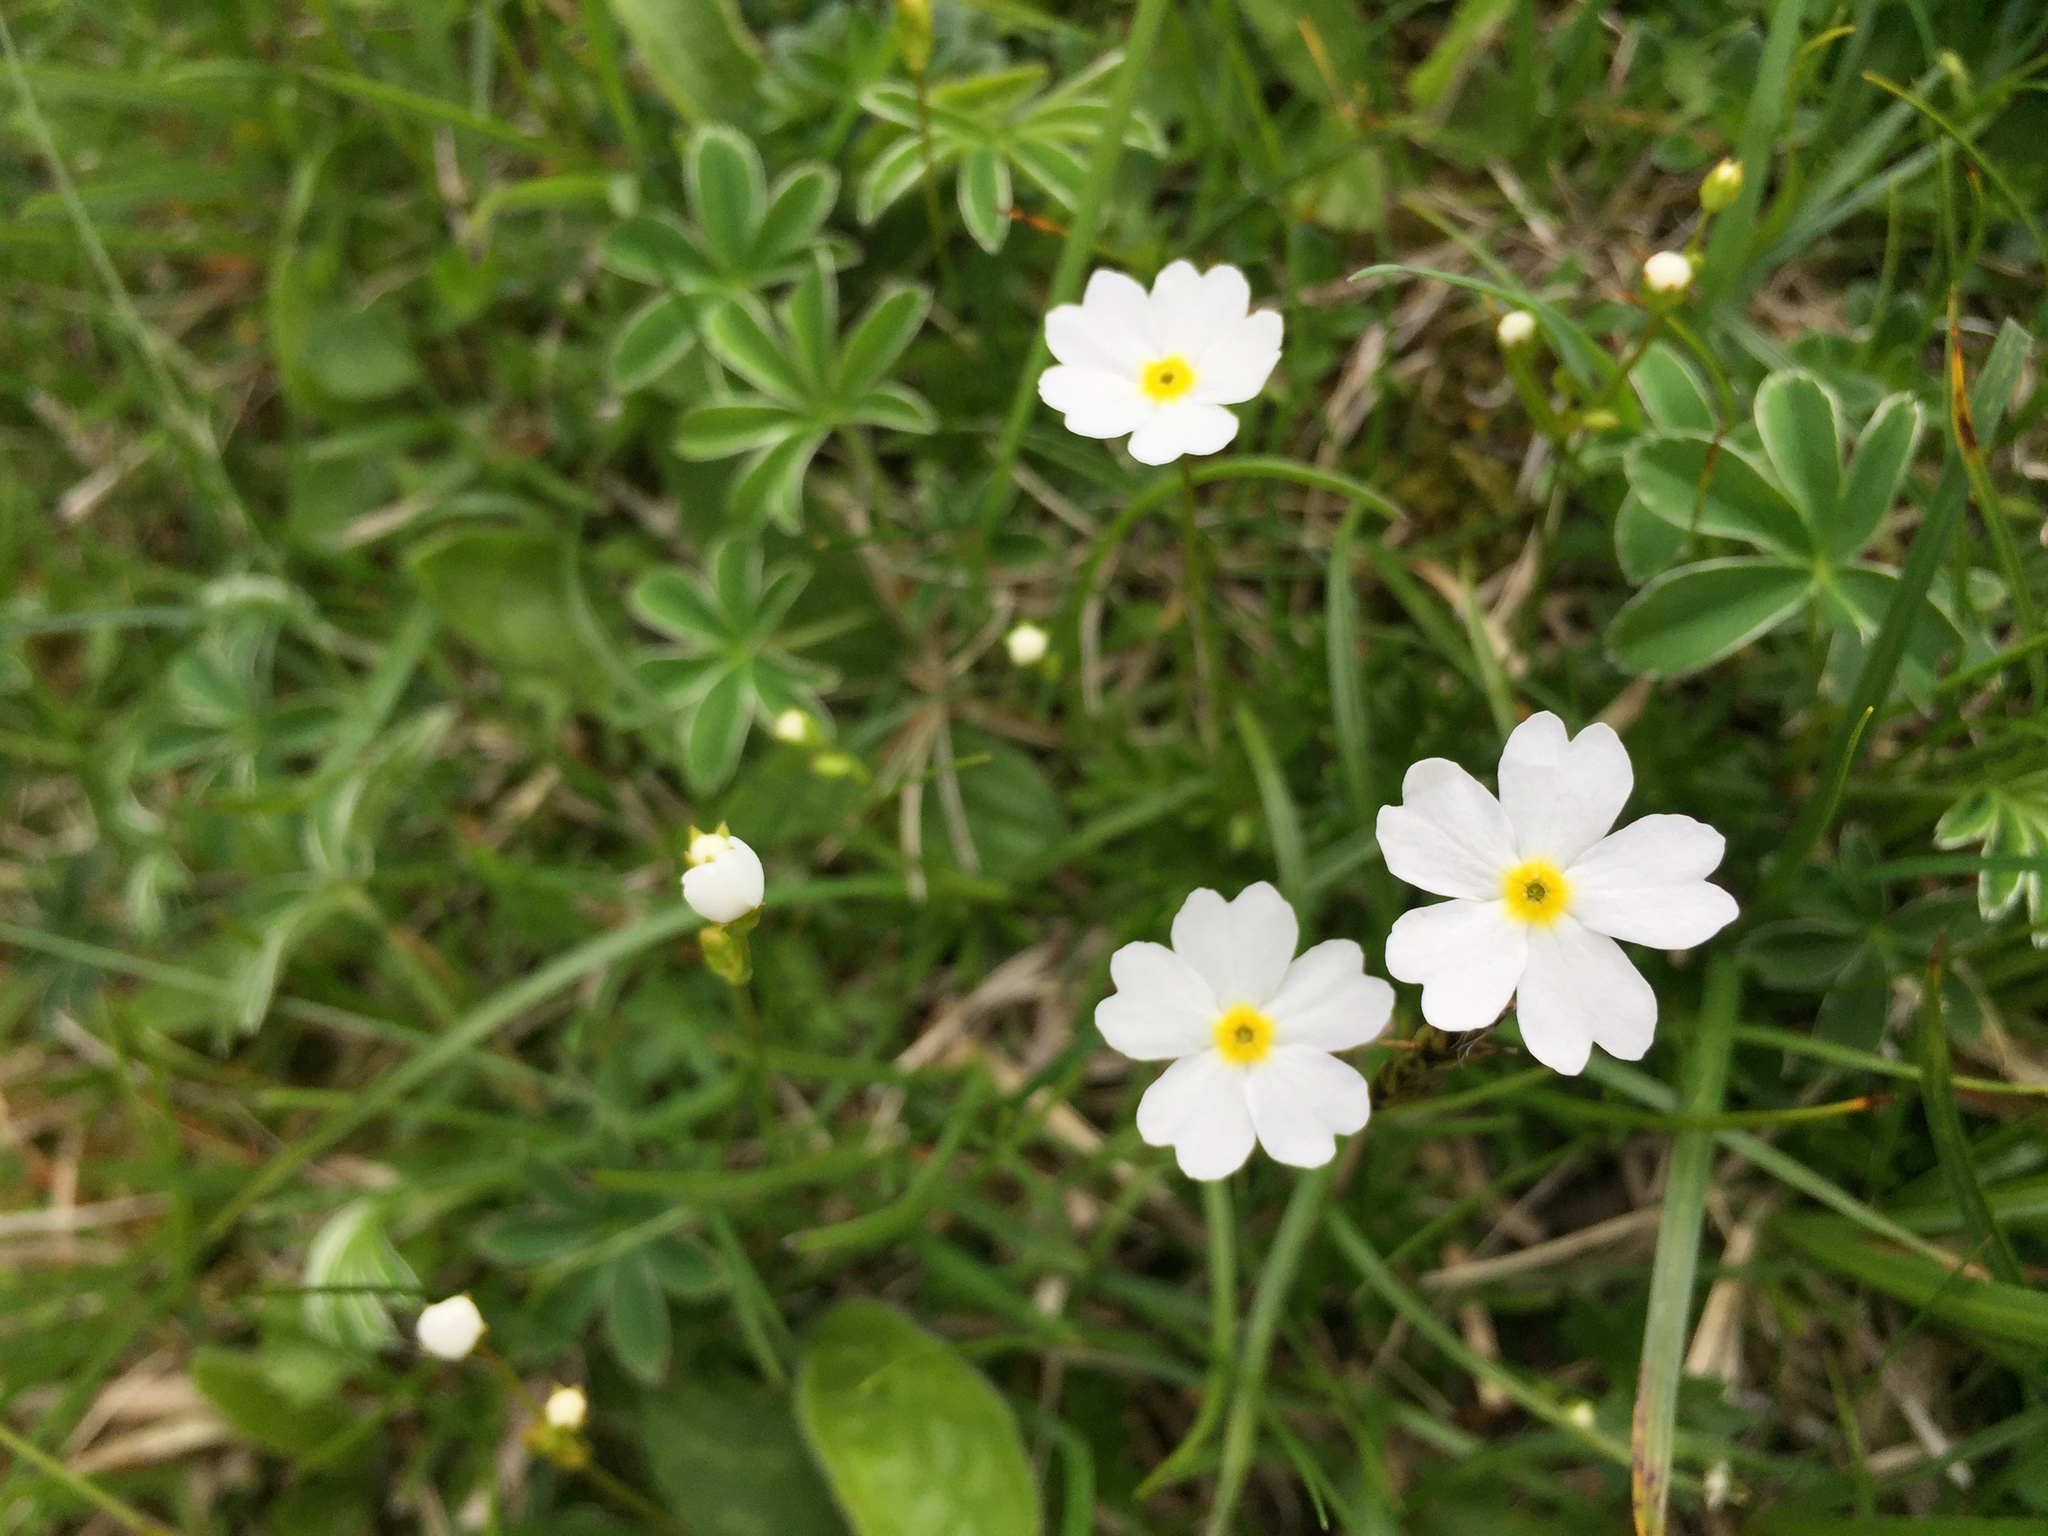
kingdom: Plantae
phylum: Tracheophyta
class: Magnoliopsida
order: Ericales
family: Primulaceae
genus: Androsace
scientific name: Androsace lactea
